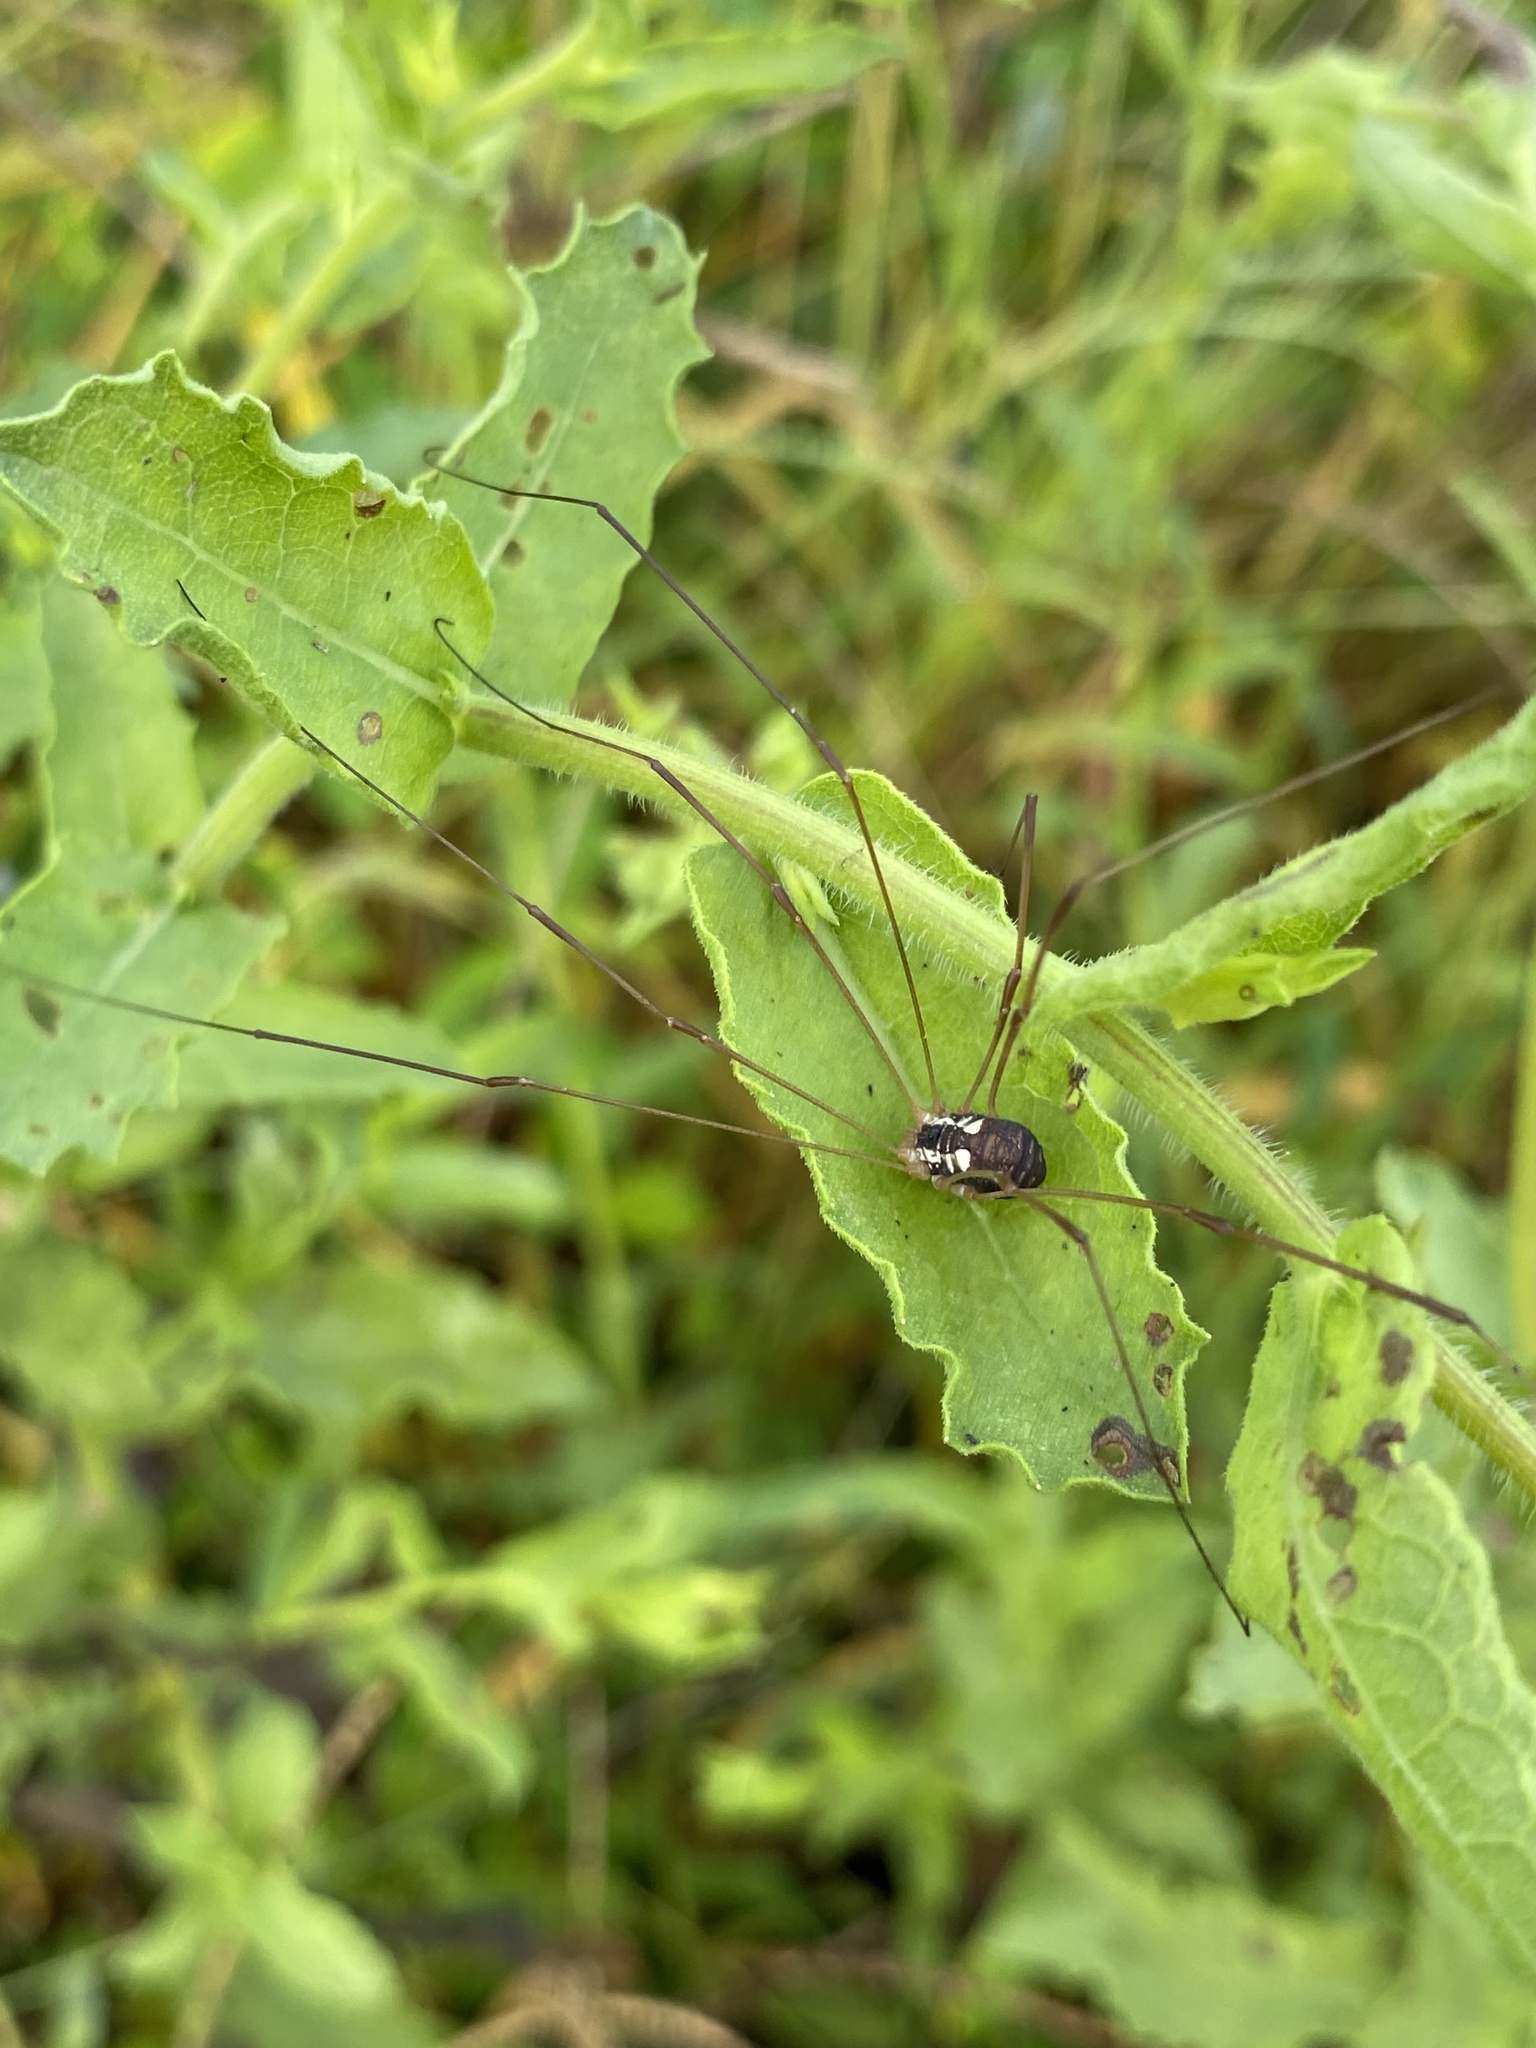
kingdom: Animalia
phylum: Arthropoda
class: Arachnida
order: Opiliones
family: Sclerosomatidae
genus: Leiobunum
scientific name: Leiobunum bimaculatum
